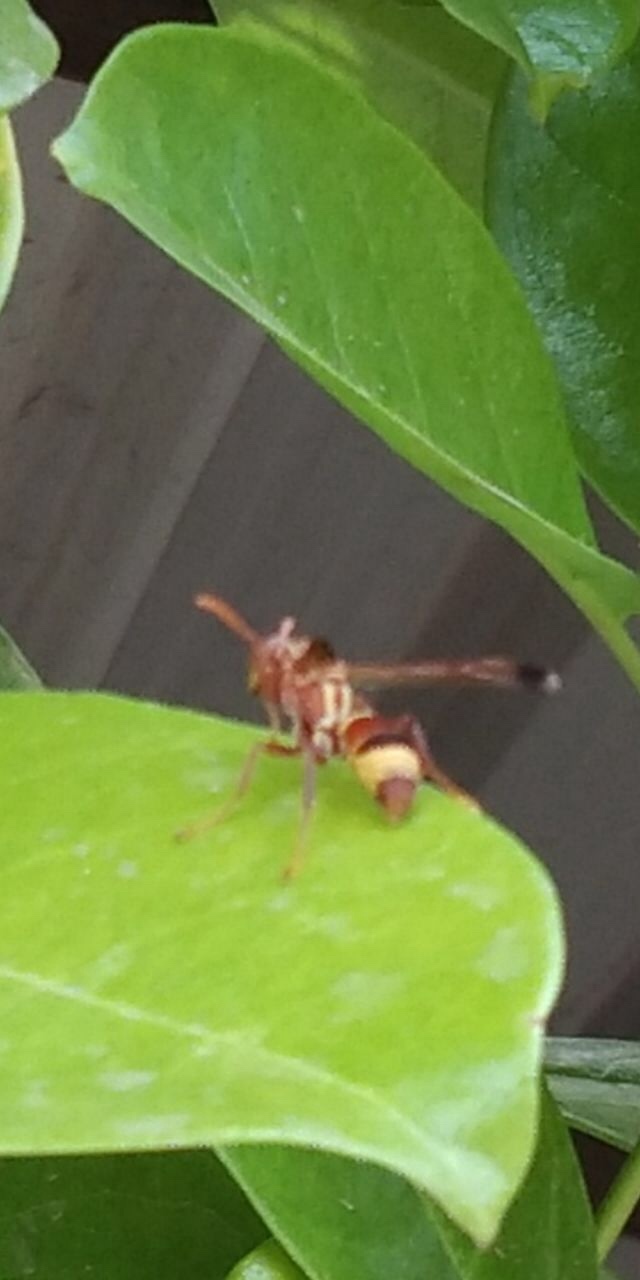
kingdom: Animalia
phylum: Arthropoda
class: Insecta
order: Hymenoptera
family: Eumenidae
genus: Polistes
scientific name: Polistes stigma
